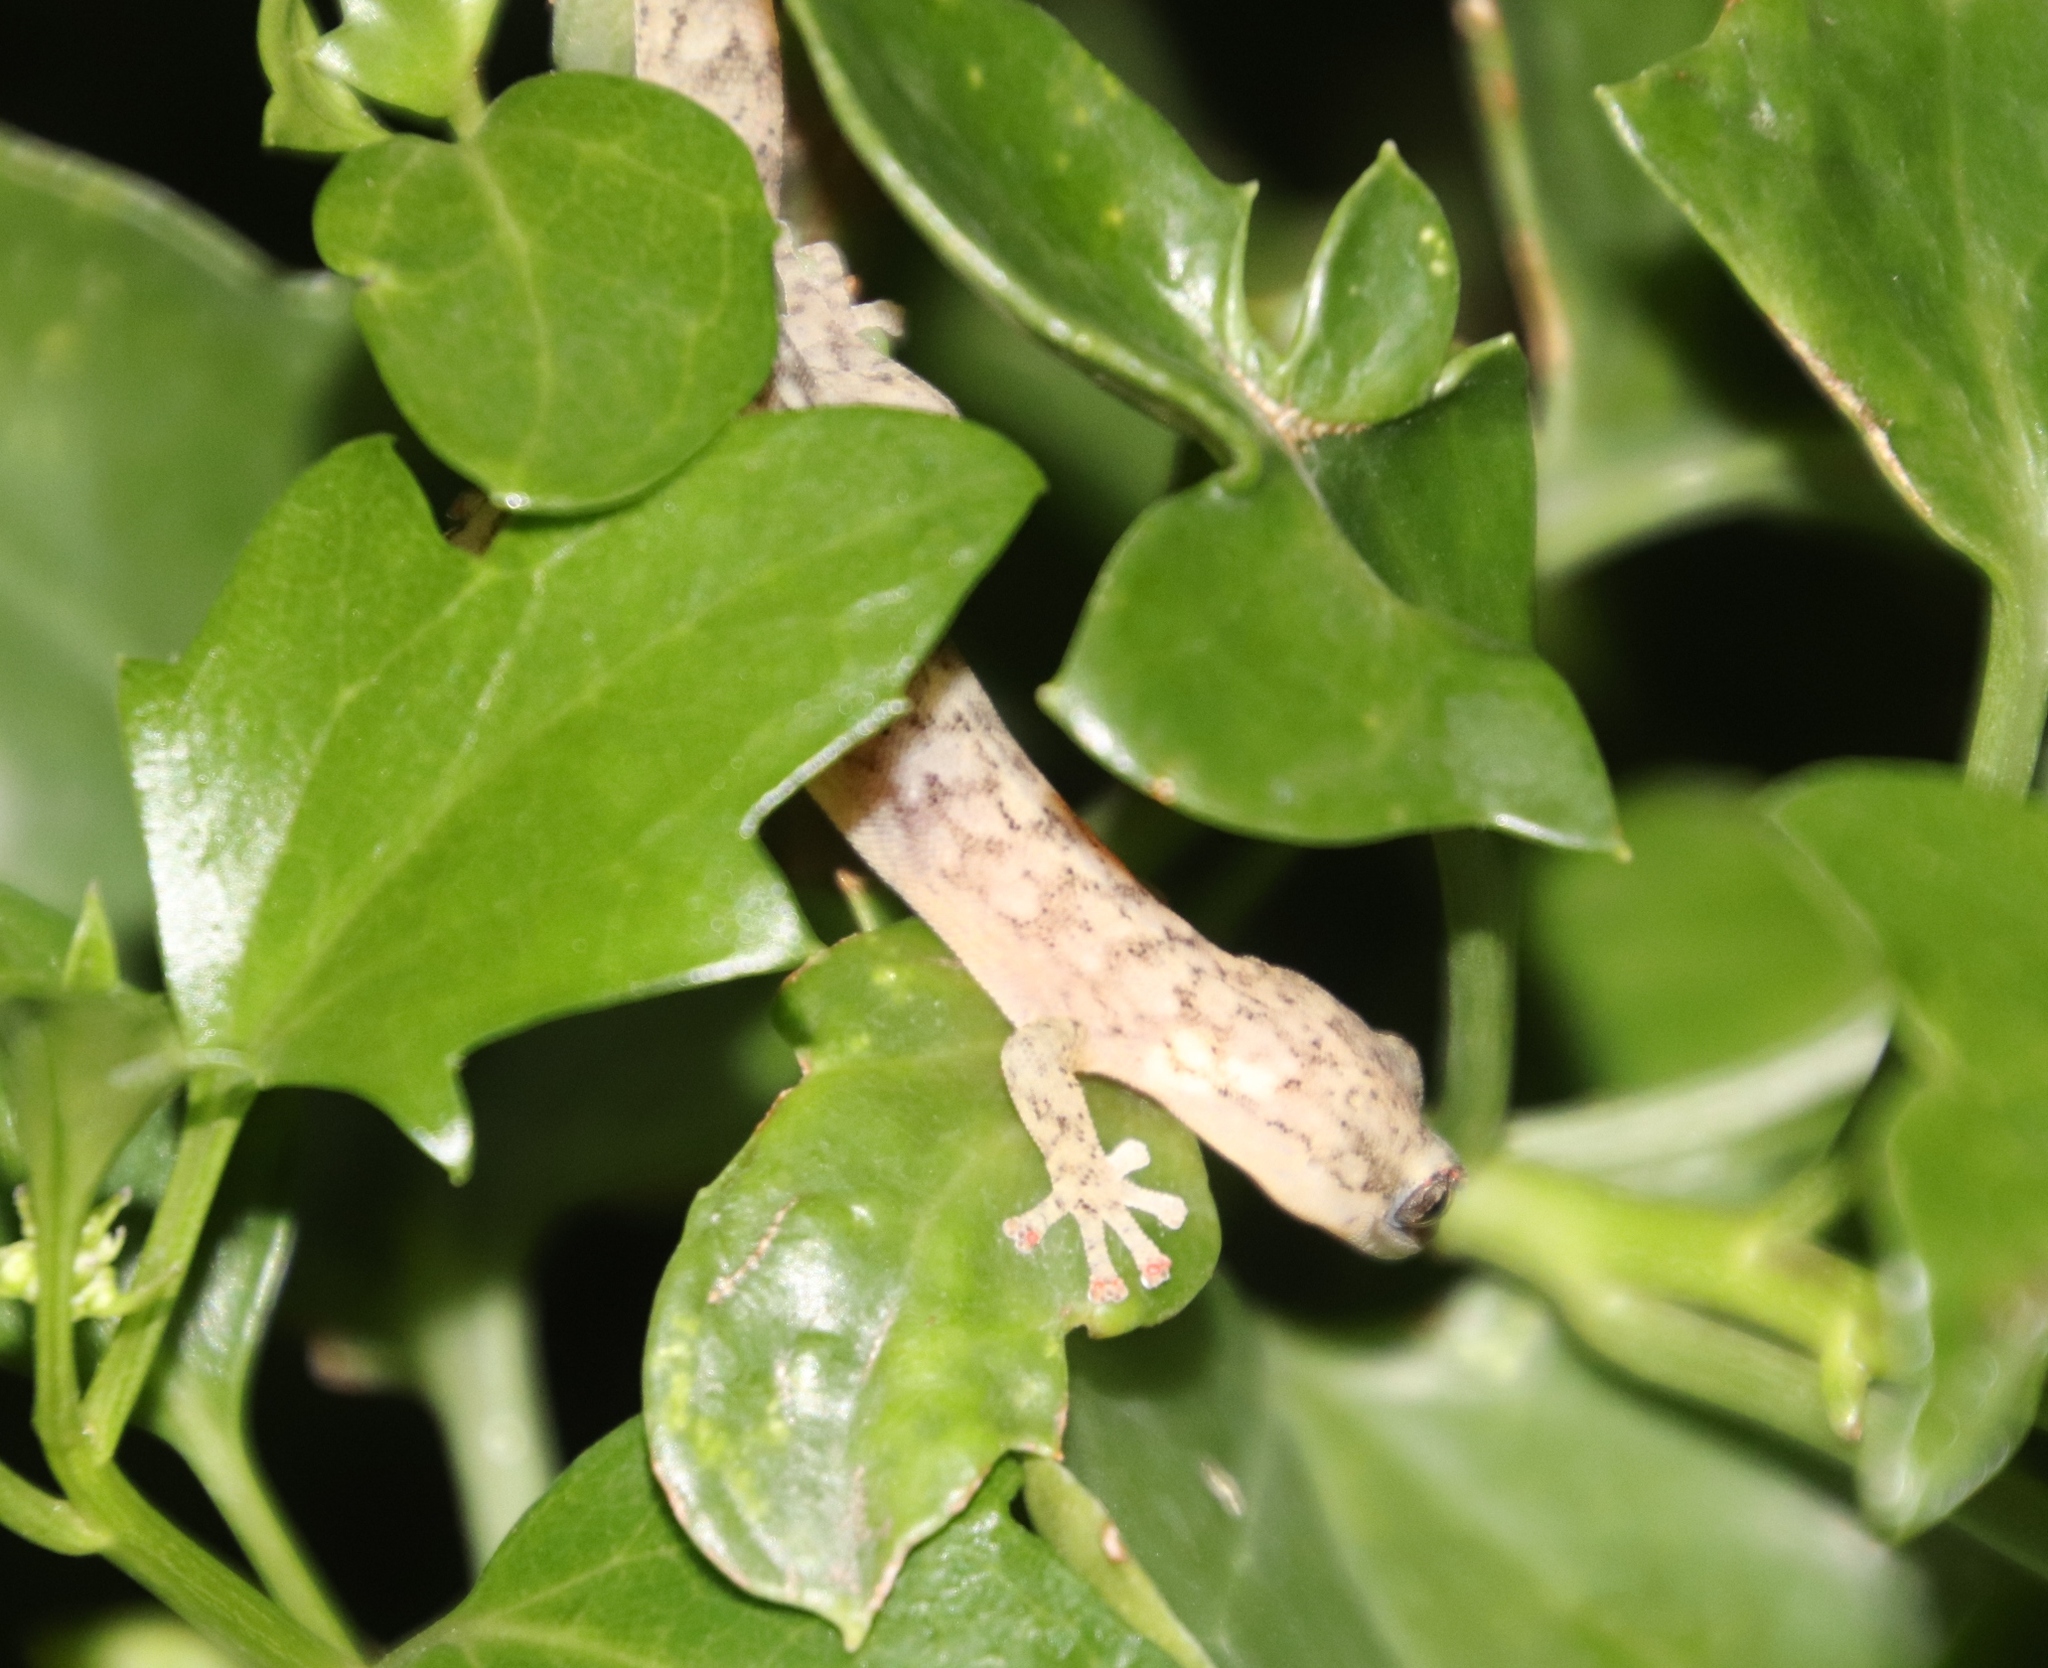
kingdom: Animalia
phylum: Chordata
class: Squamata
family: Gekkonidae
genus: Afrogecko
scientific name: Afrogecko porphyreus
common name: Marbled leaf-toed gecko
